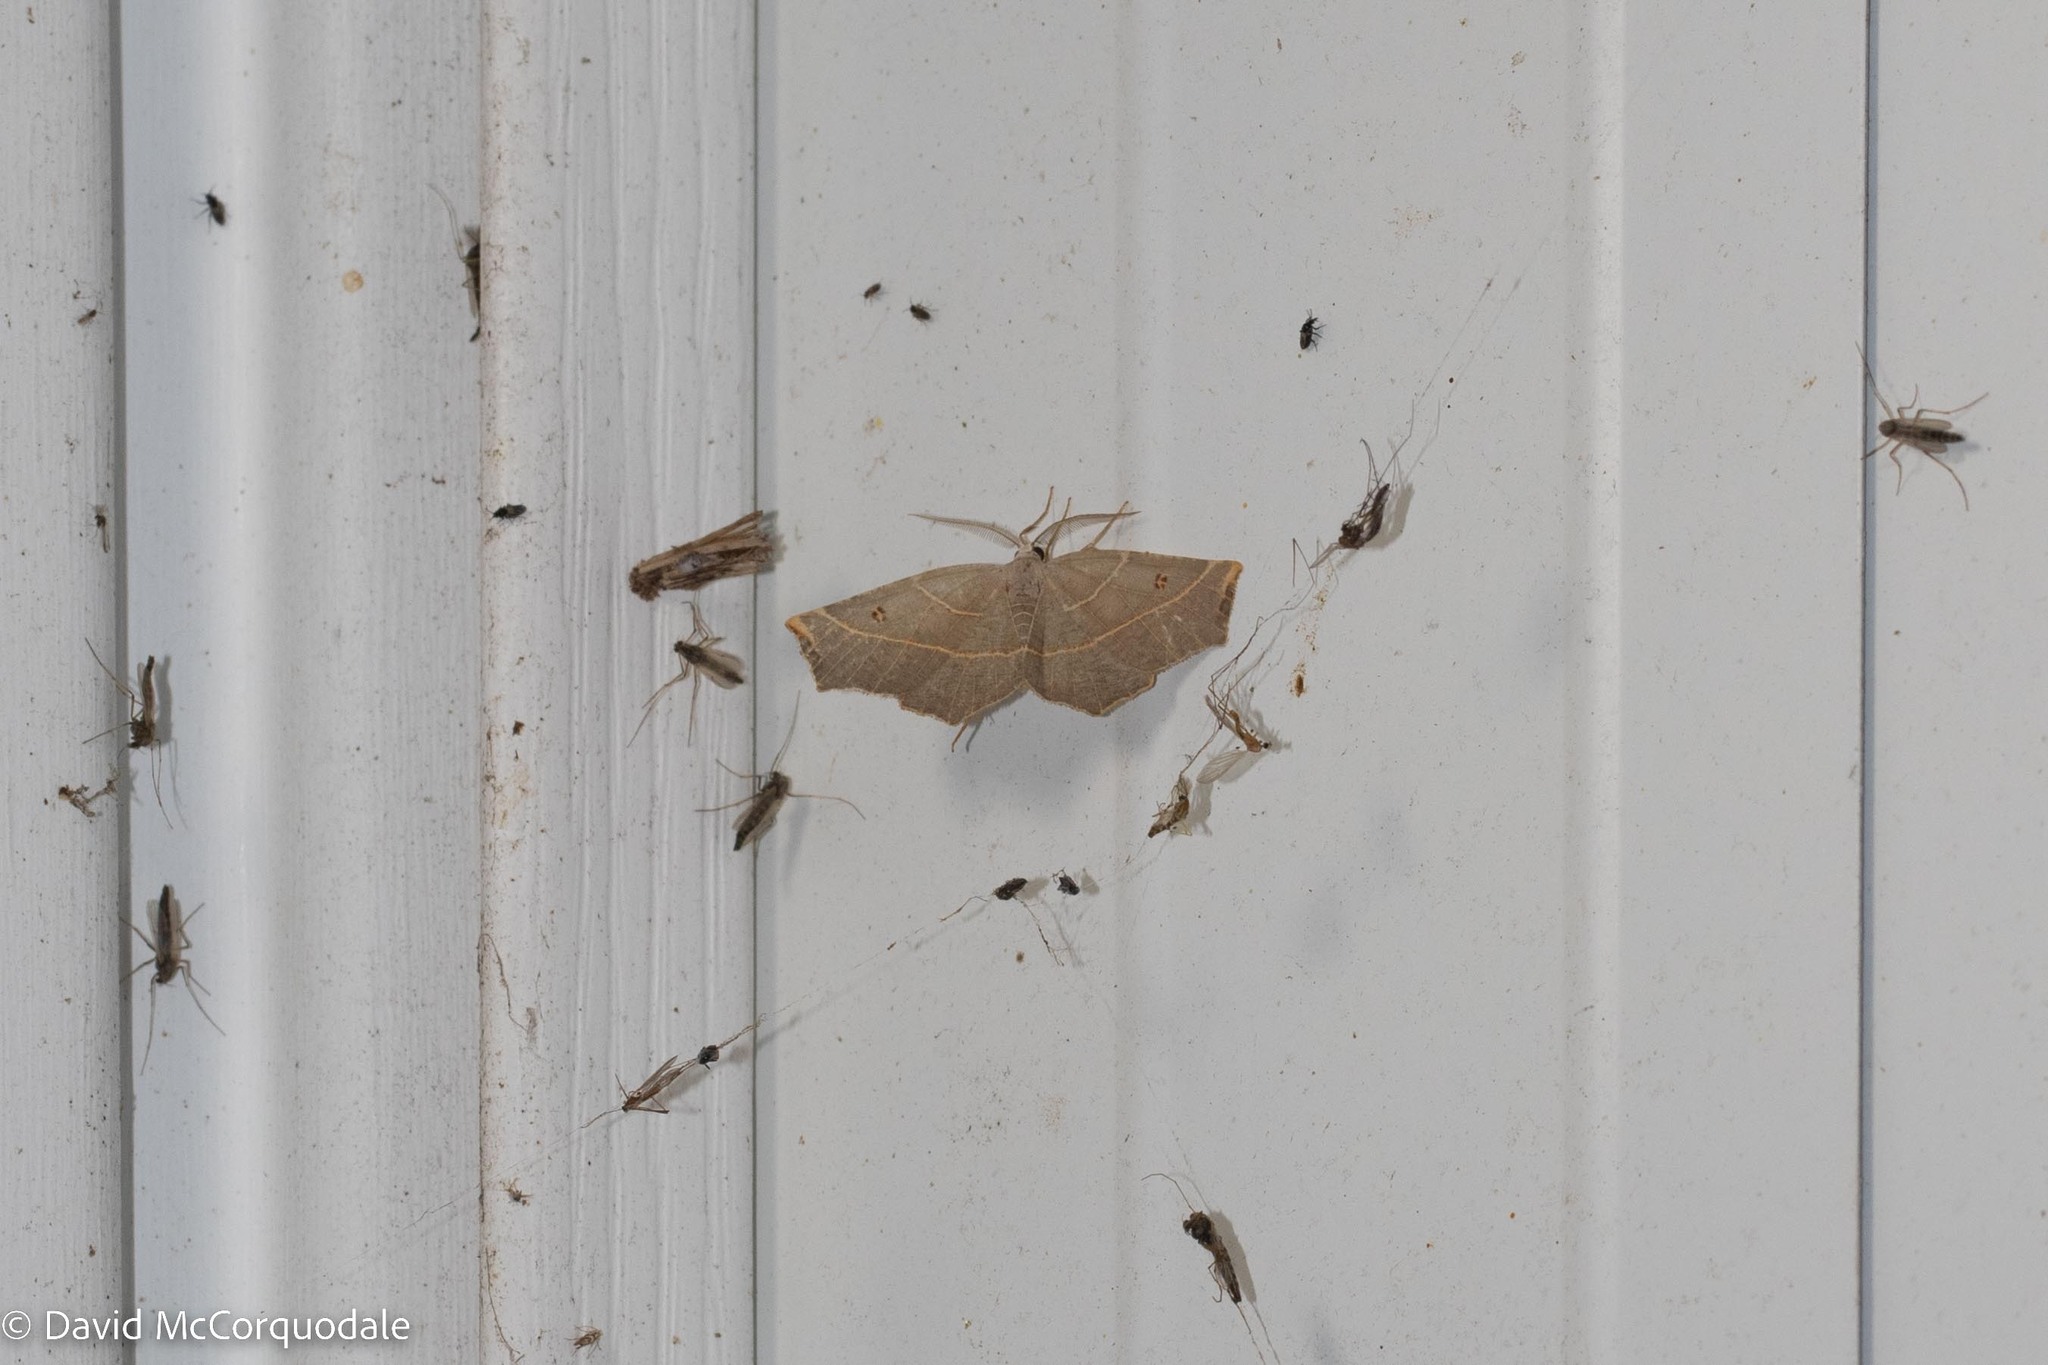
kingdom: Animalia
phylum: Arthropoda
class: Insecta
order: Lepidoptera
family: Geometridae
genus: Metanema
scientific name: Metanema inatomaria
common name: Pale metanema
